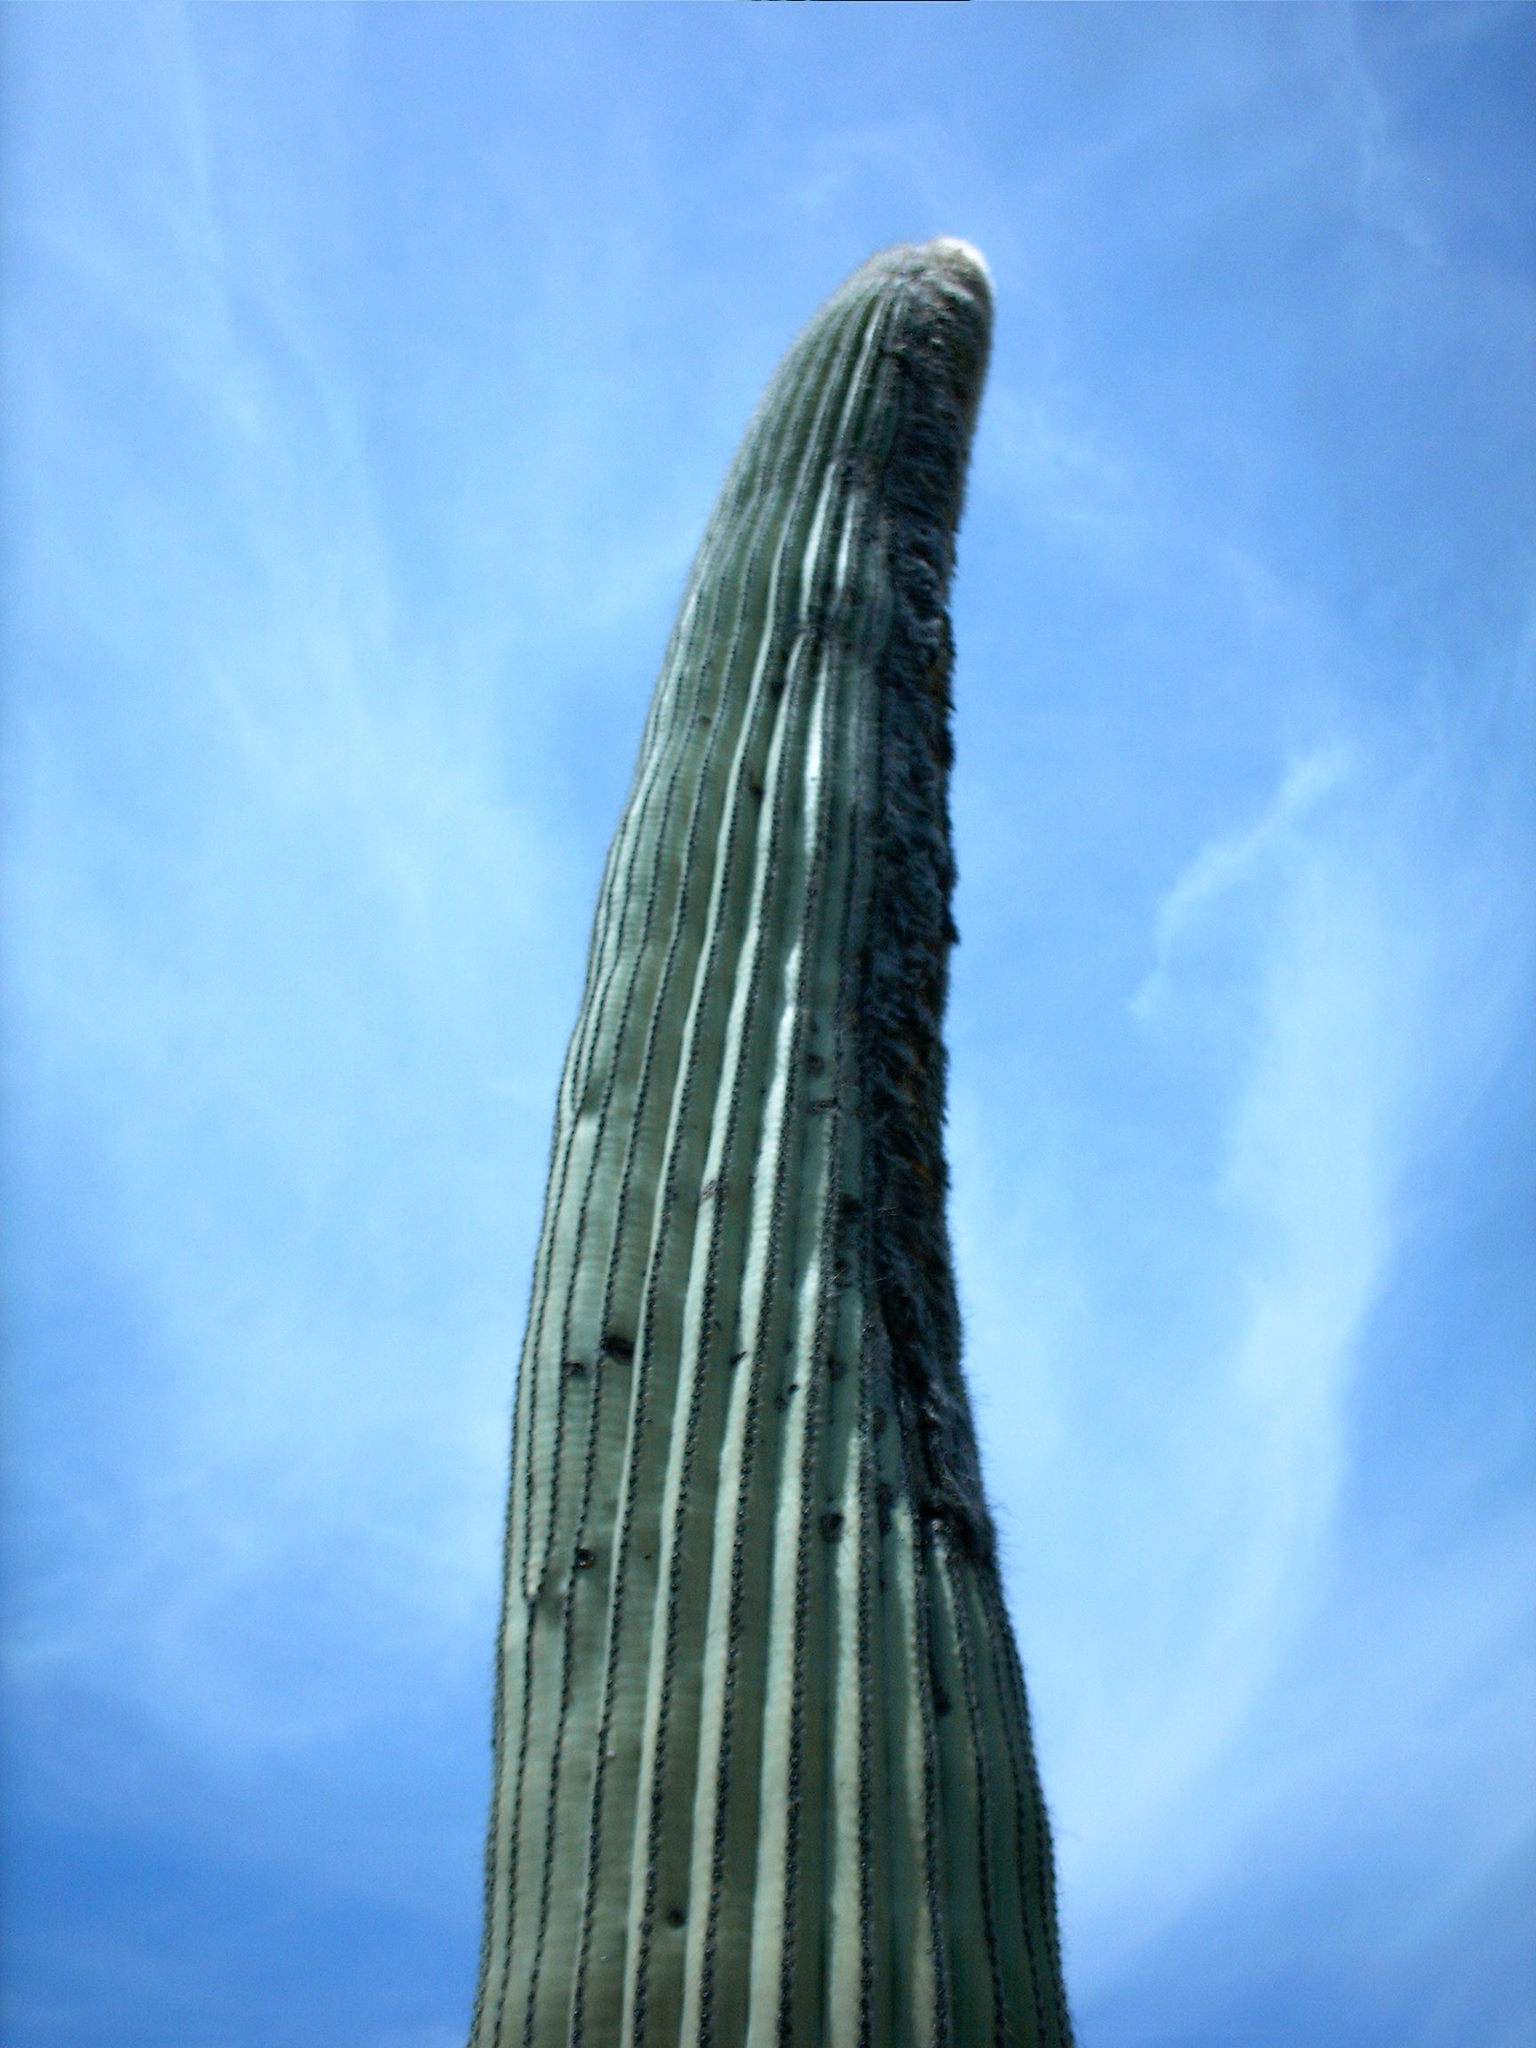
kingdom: Plantae
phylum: Tracheophyta
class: Magnoliopsida
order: Caryophyllales
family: Cactaceae
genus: Cephalocereus
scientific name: Cephalocereus columna-trajani
